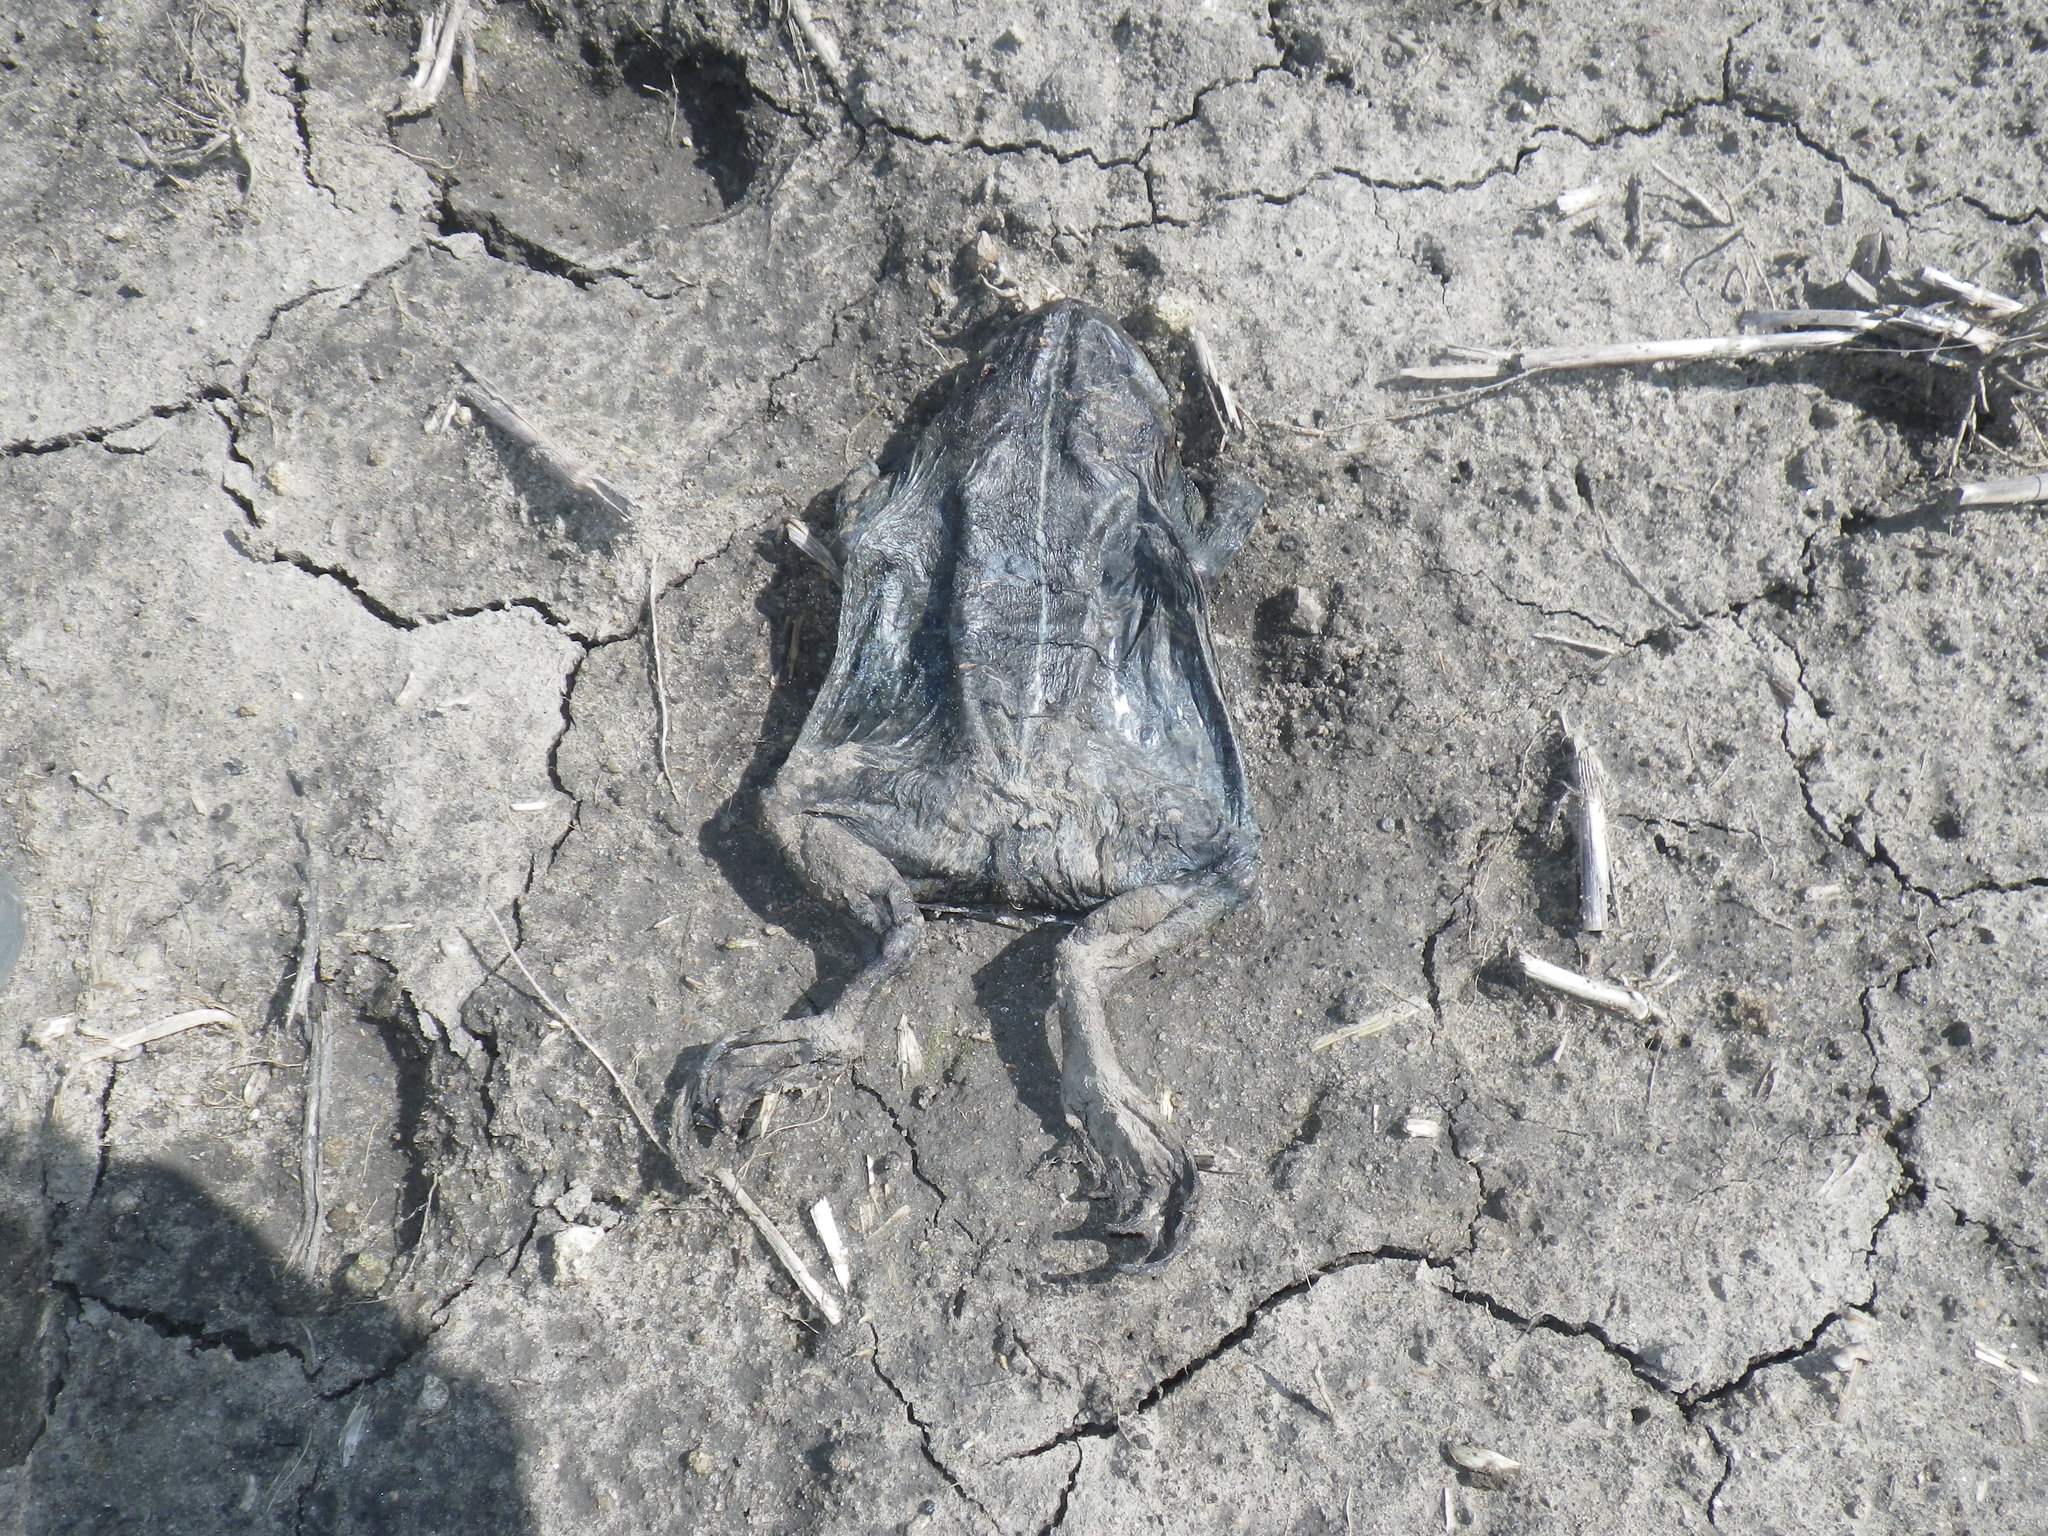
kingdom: Animalia
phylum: Chordata
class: Amphibia
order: Anura
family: Bufonidae
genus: Anaxyrus
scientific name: Anaxyrus boreas
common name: Western toad
